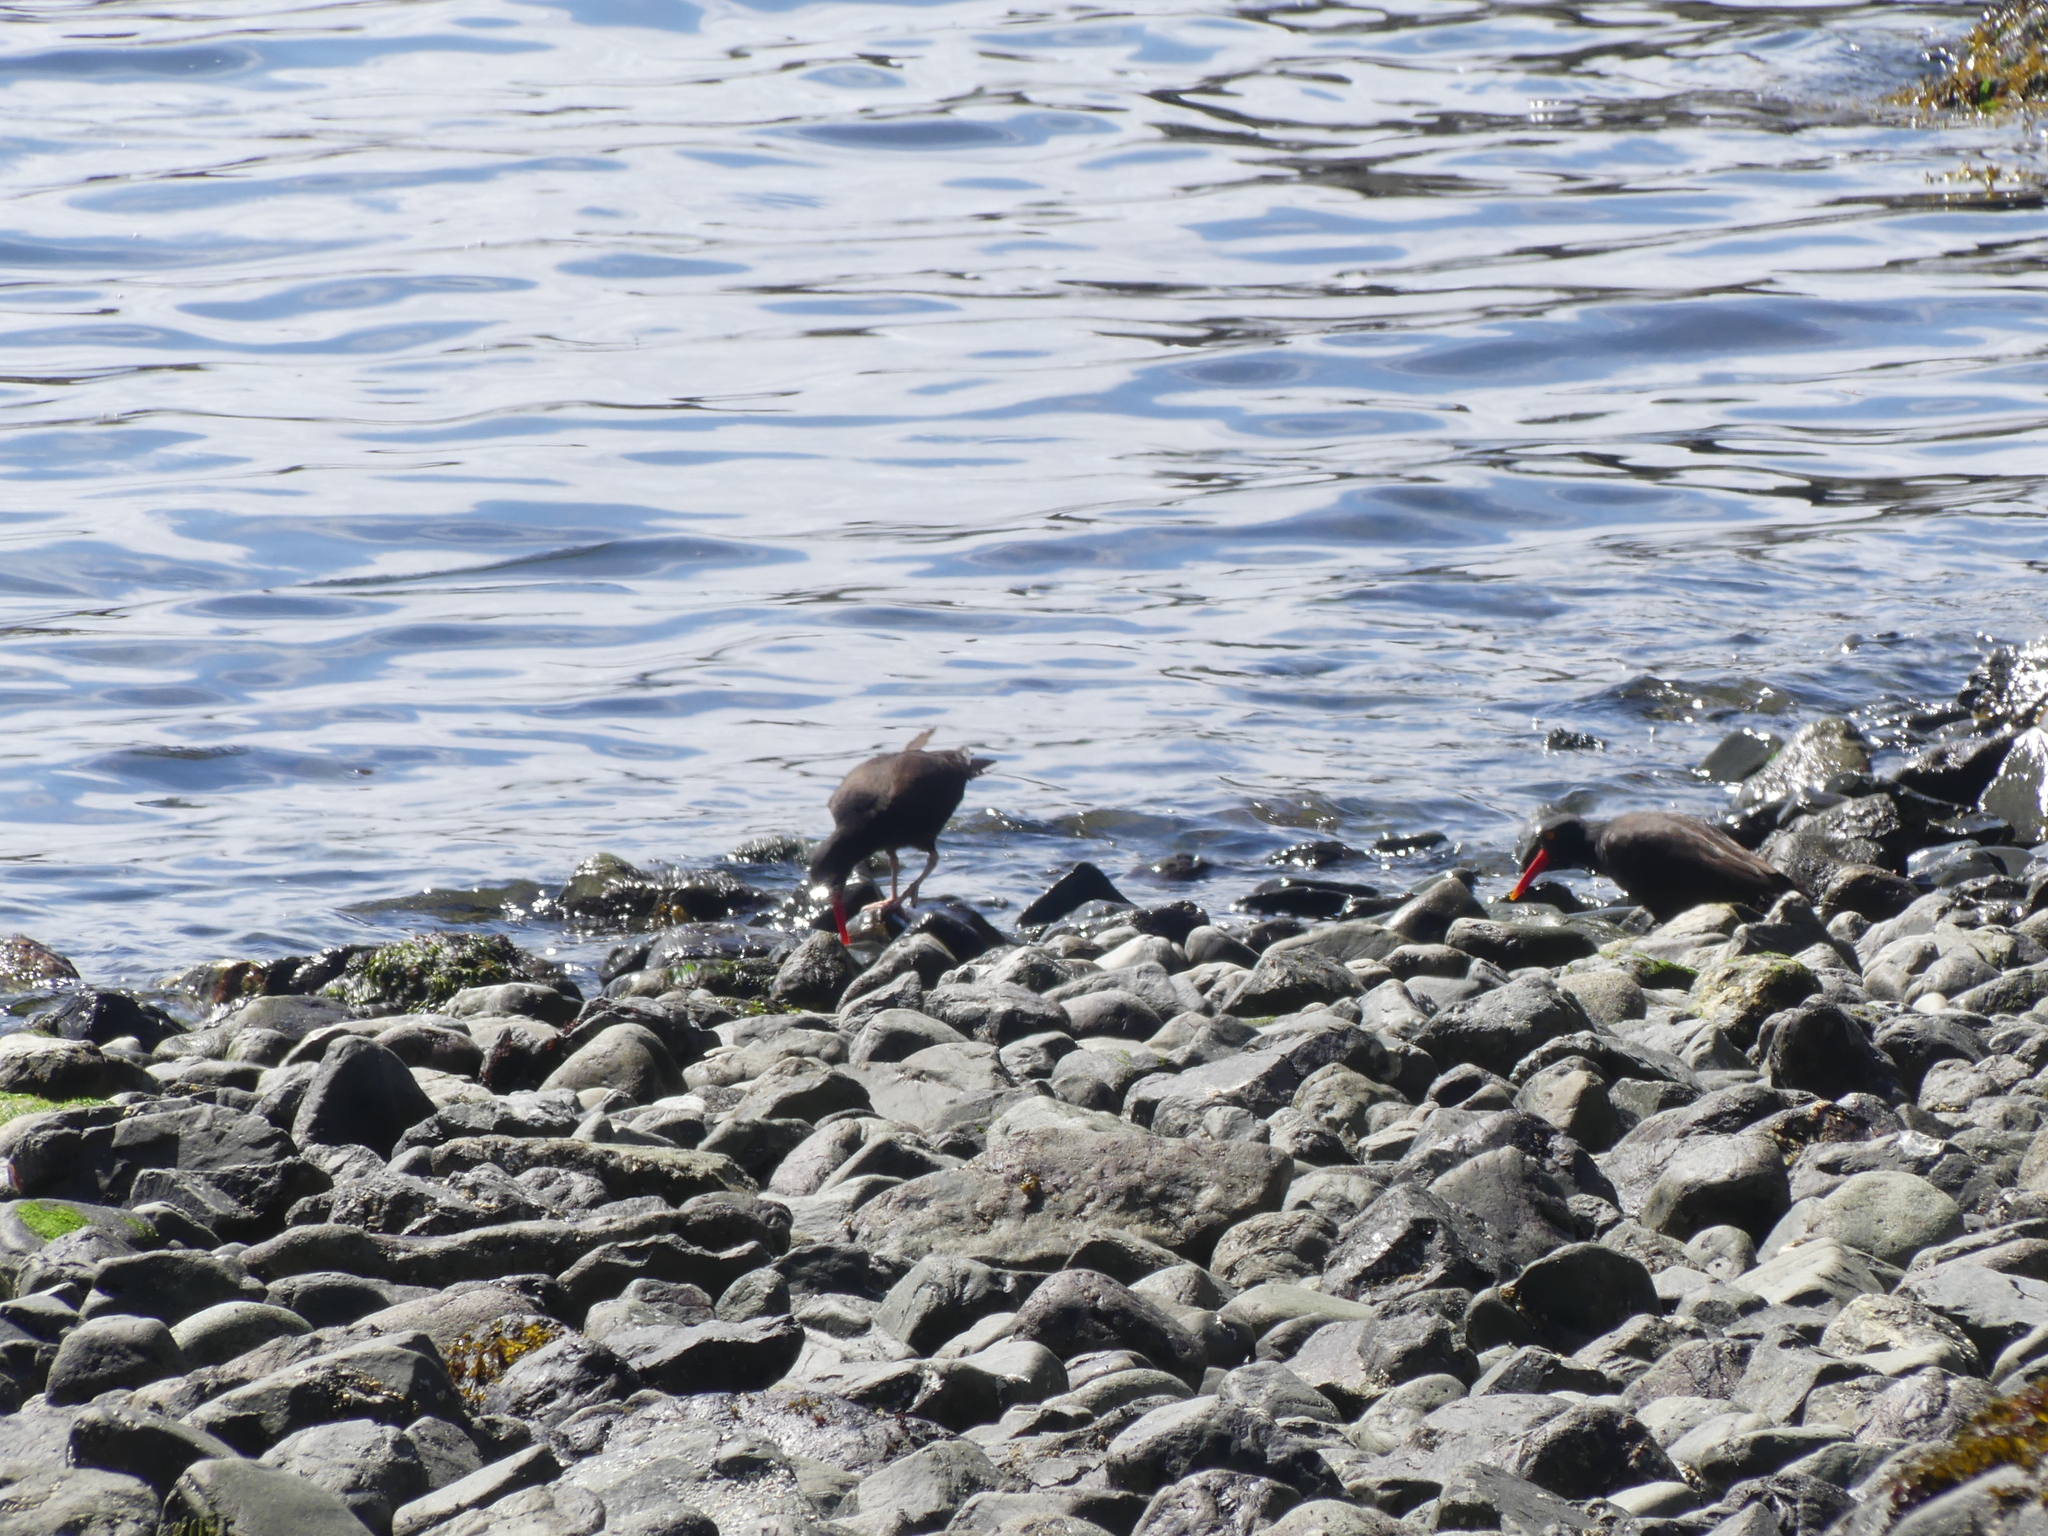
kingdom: Animalia
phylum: Chordata
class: Aves
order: Charadriiformes
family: Haematopodidae
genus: Haematopus
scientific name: Haematopus bachmani
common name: Black oystercatcher
